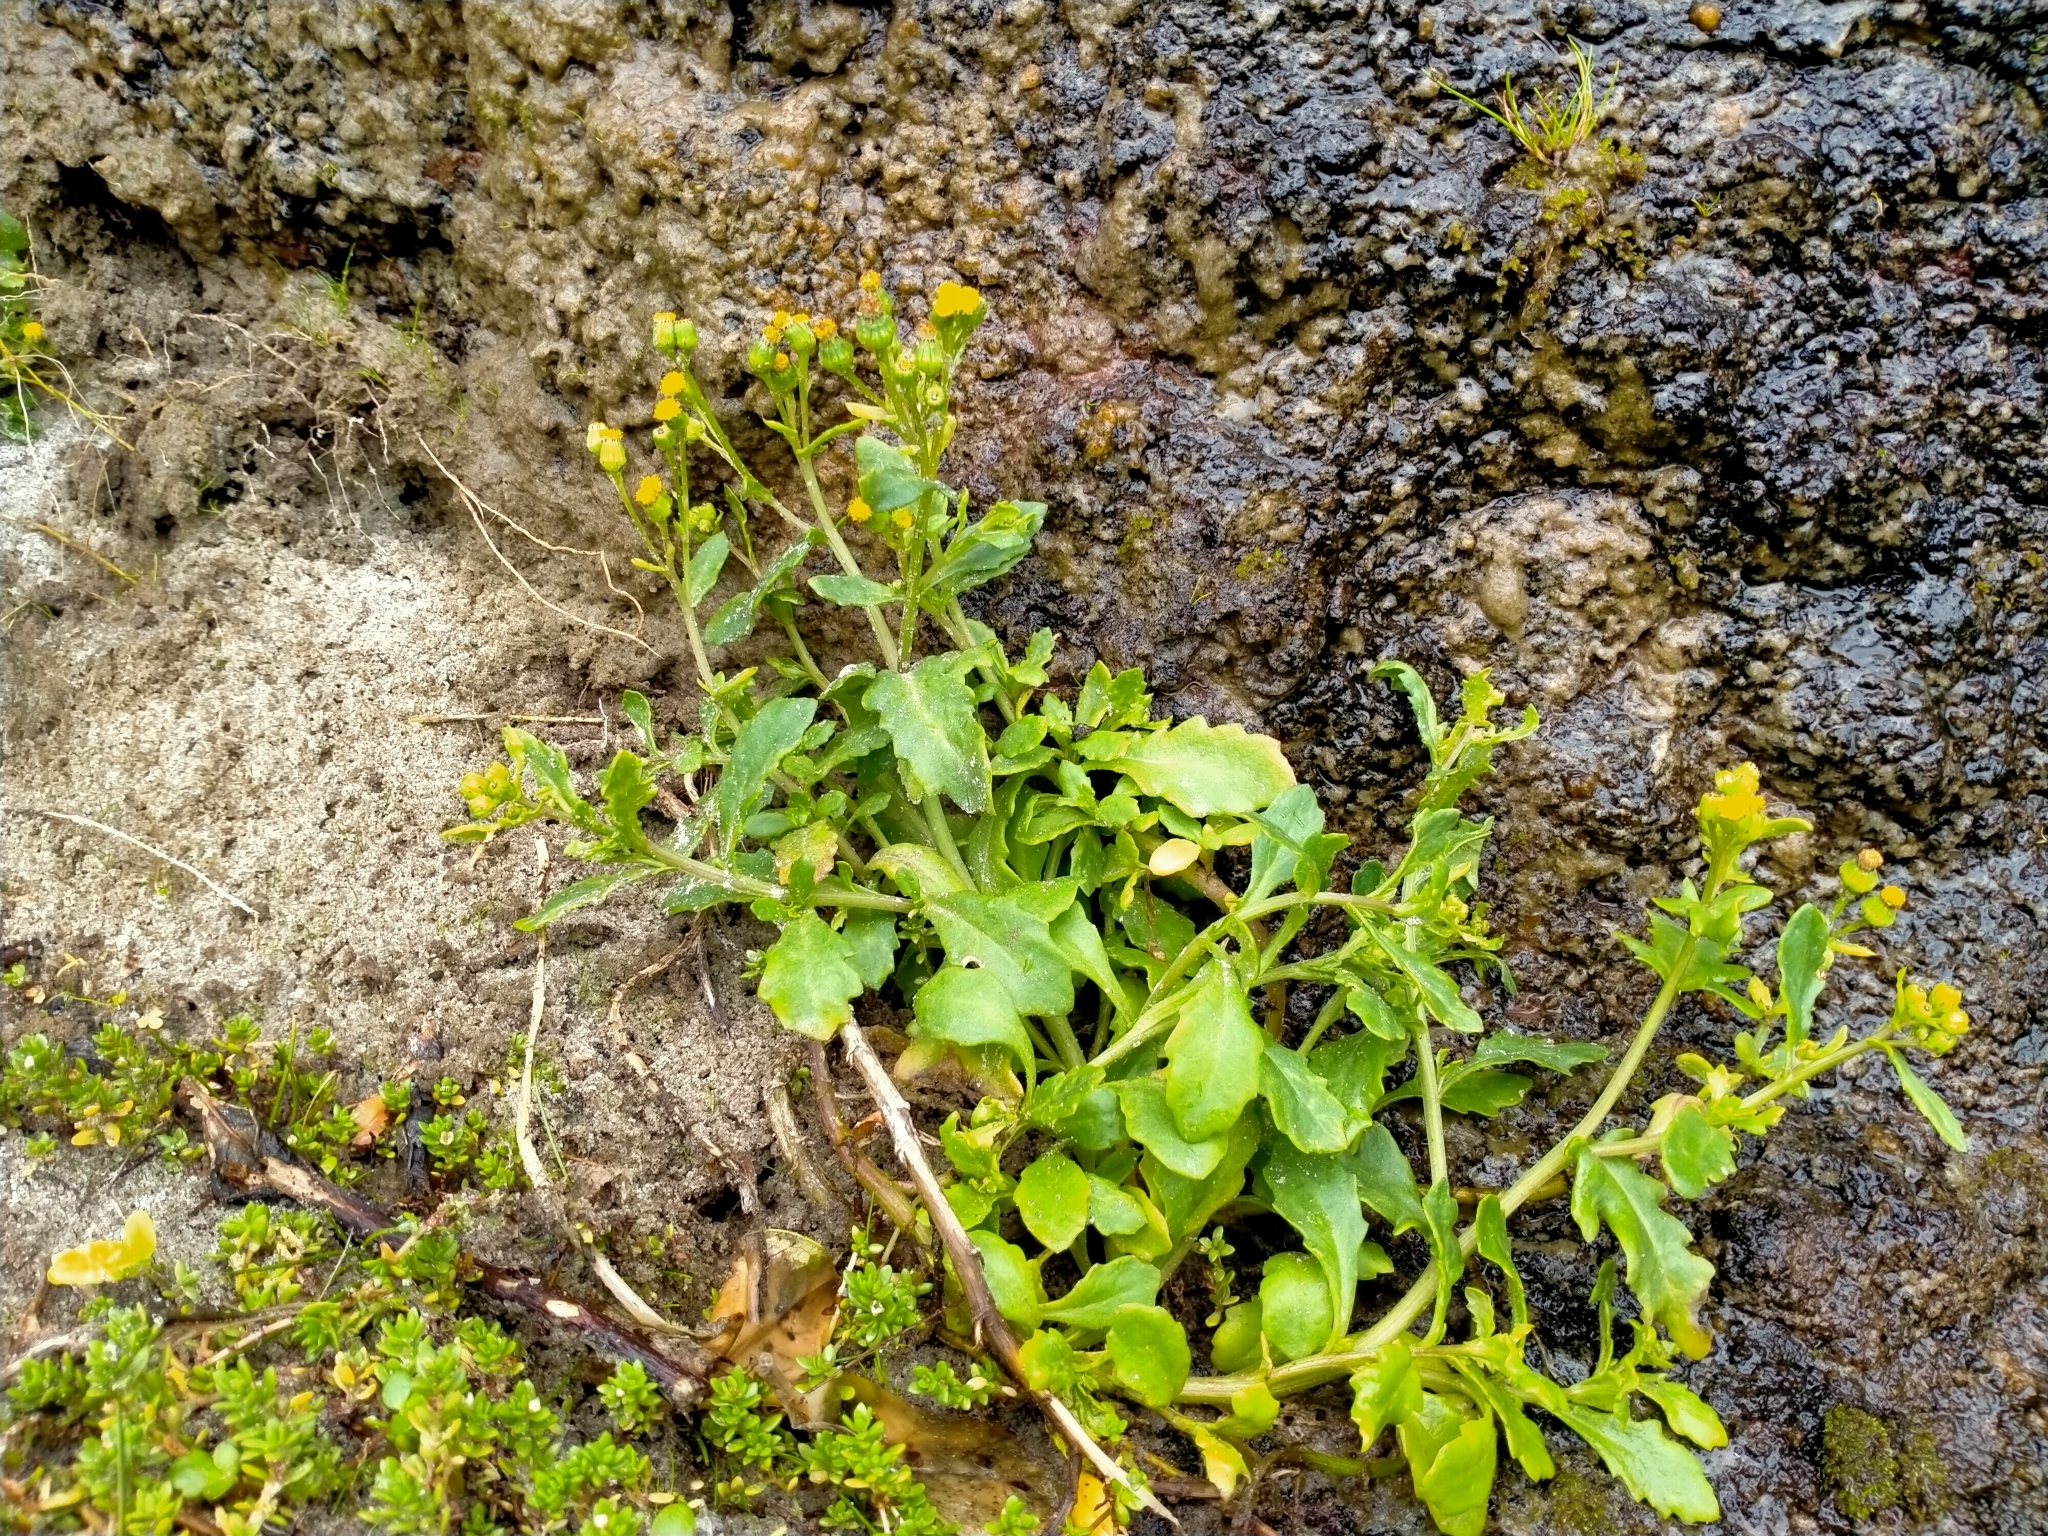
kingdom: Plantae
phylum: Tracheophyta
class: Magnoliopsida
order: Asterales
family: Asteraceae
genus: Senecio
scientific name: Senecio matatini
